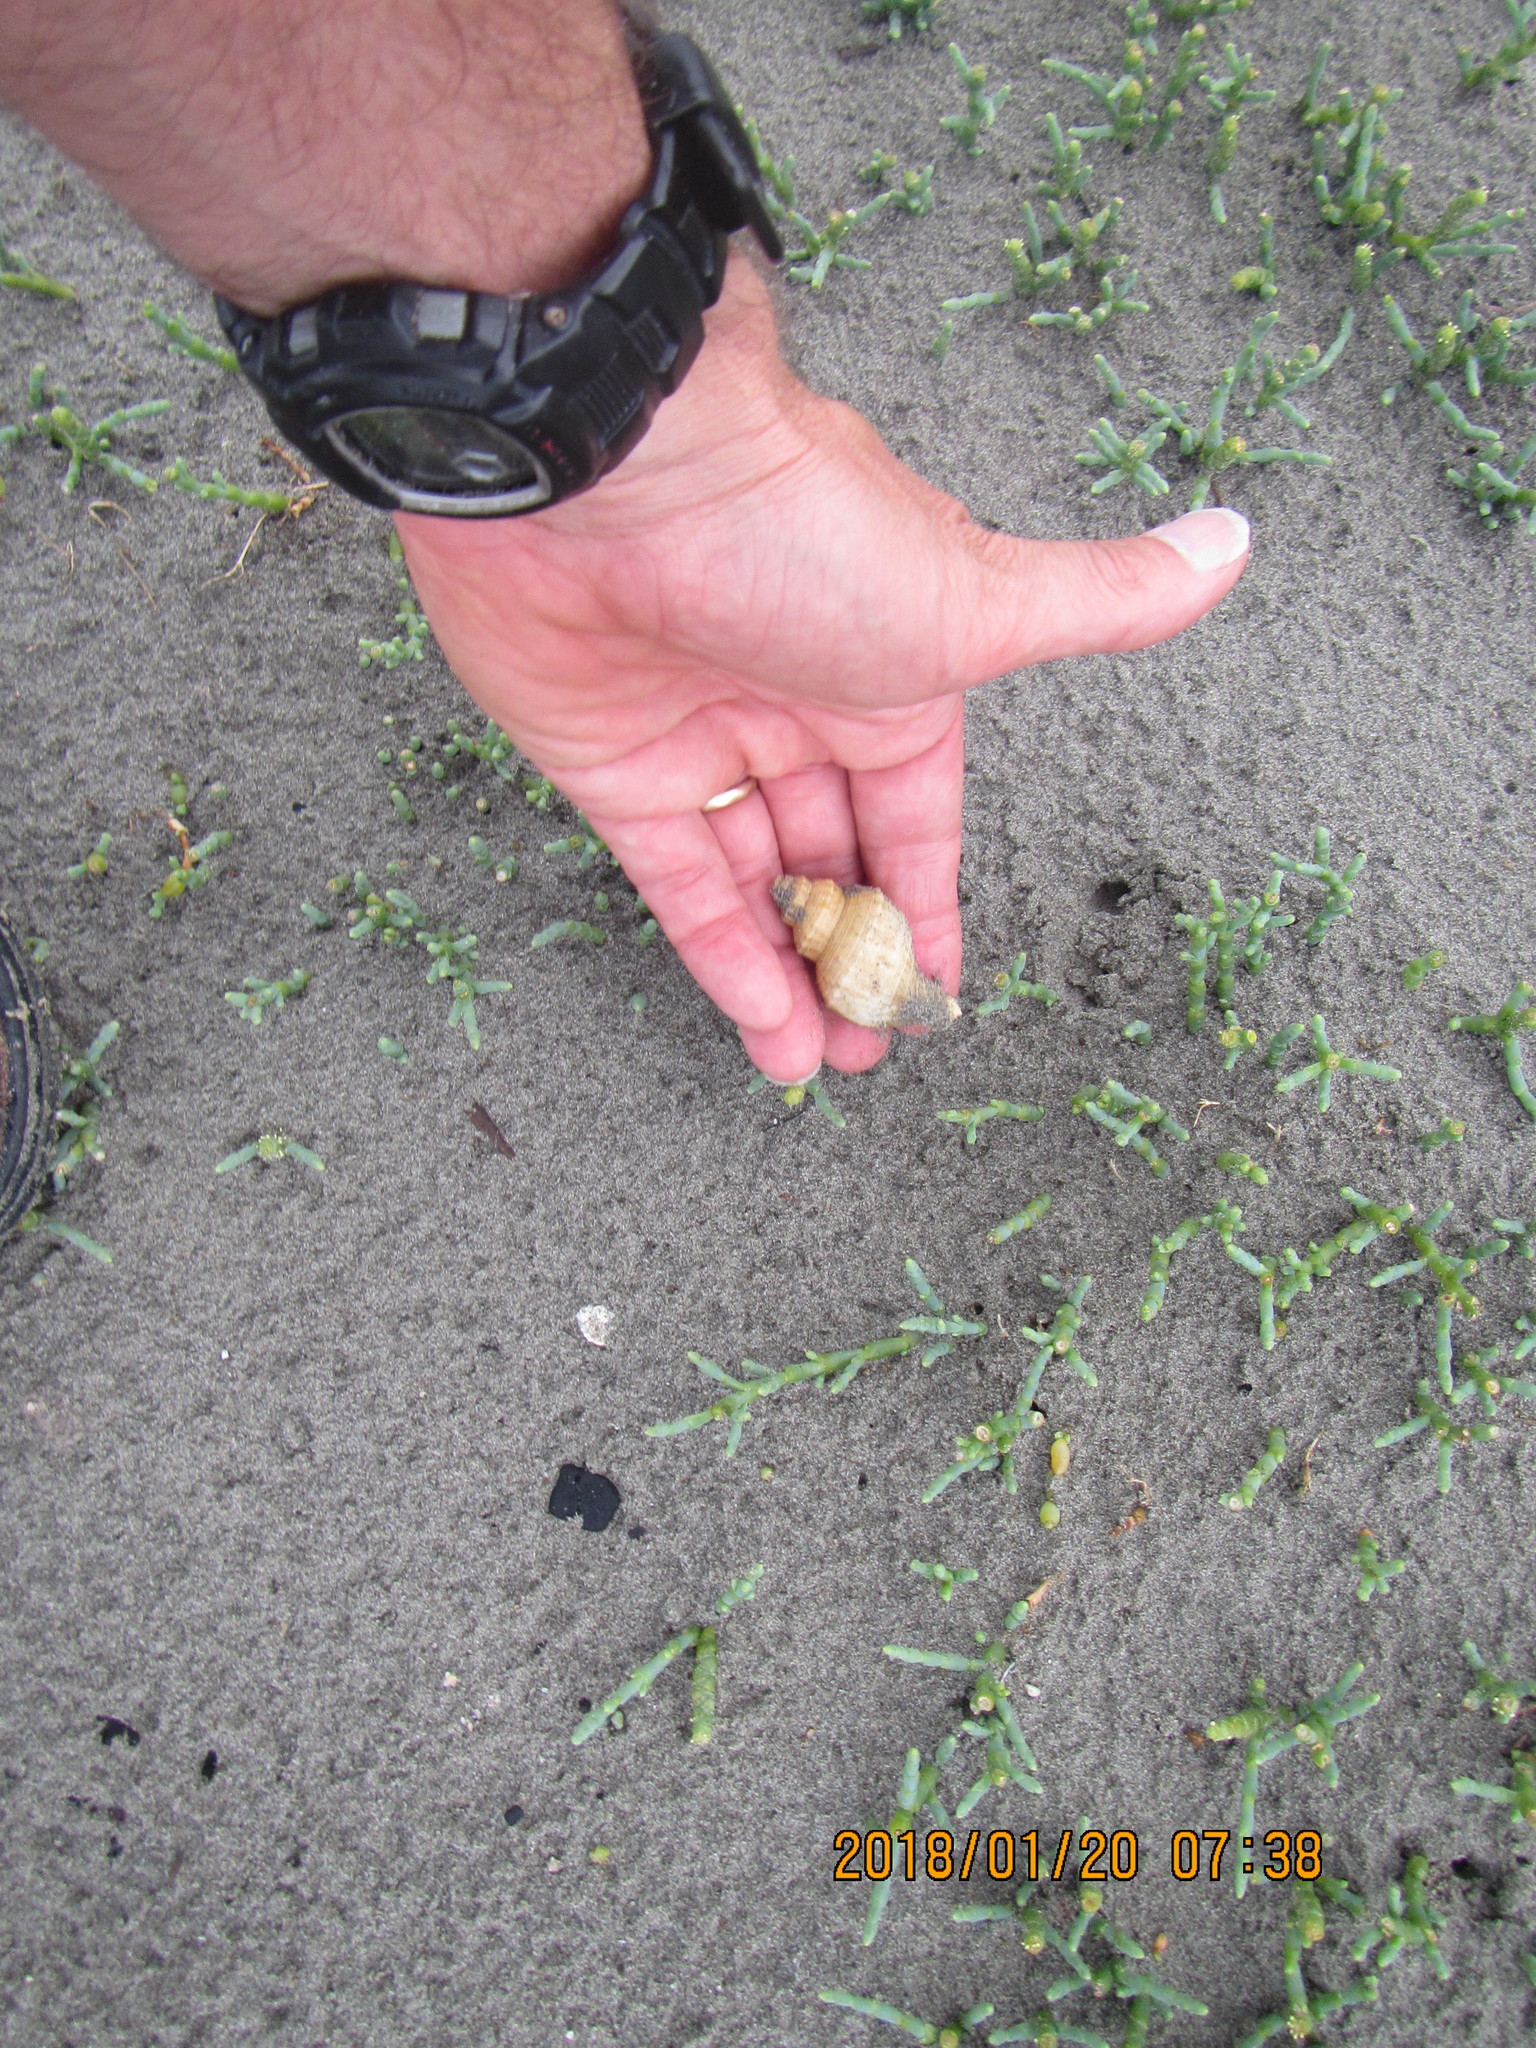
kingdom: Animalia
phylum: Mollusca
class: Gastropoda
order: Neogastropoda
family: Prosiphonidae
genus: Austrofusus
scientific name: Austrofusus glans
